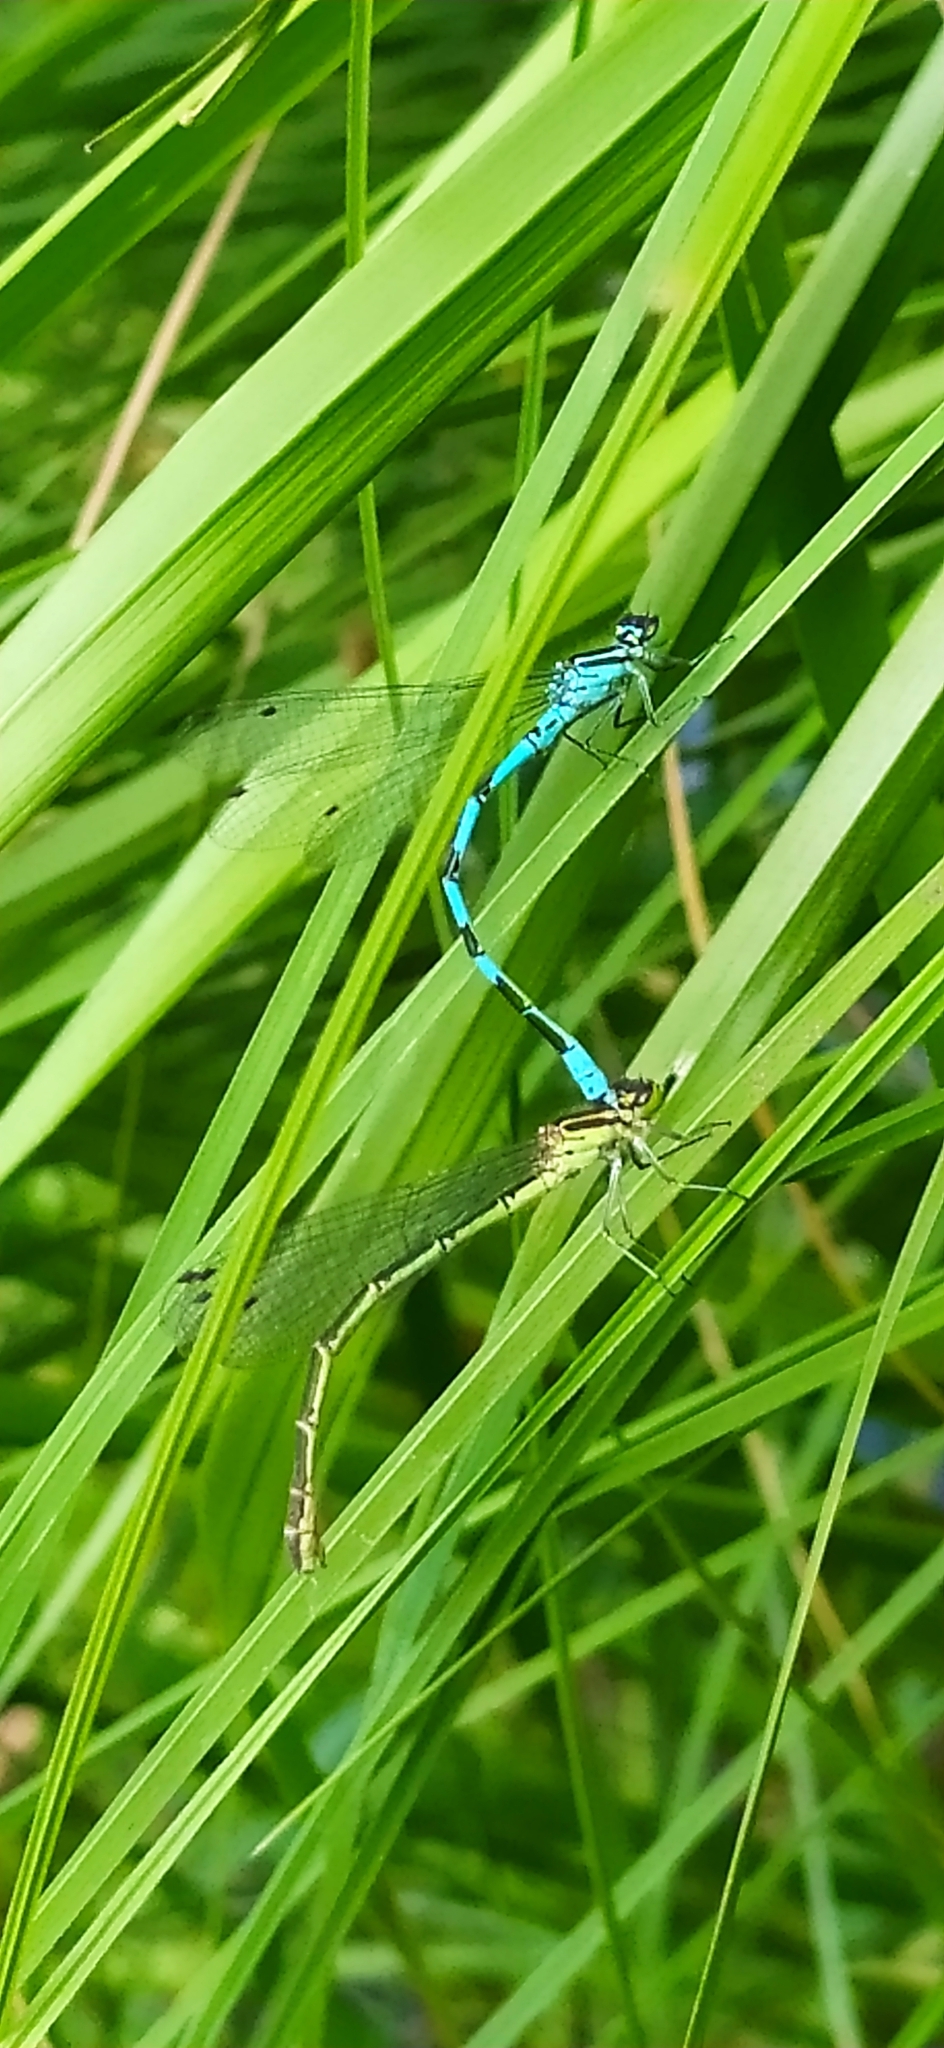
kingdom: Animalia
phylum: Arthropoda
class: Insecta
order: Odonata
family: Coenagrionidae
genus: Coenagrion
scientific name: Coenagrion hastulatum
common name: Spearhead bluet
